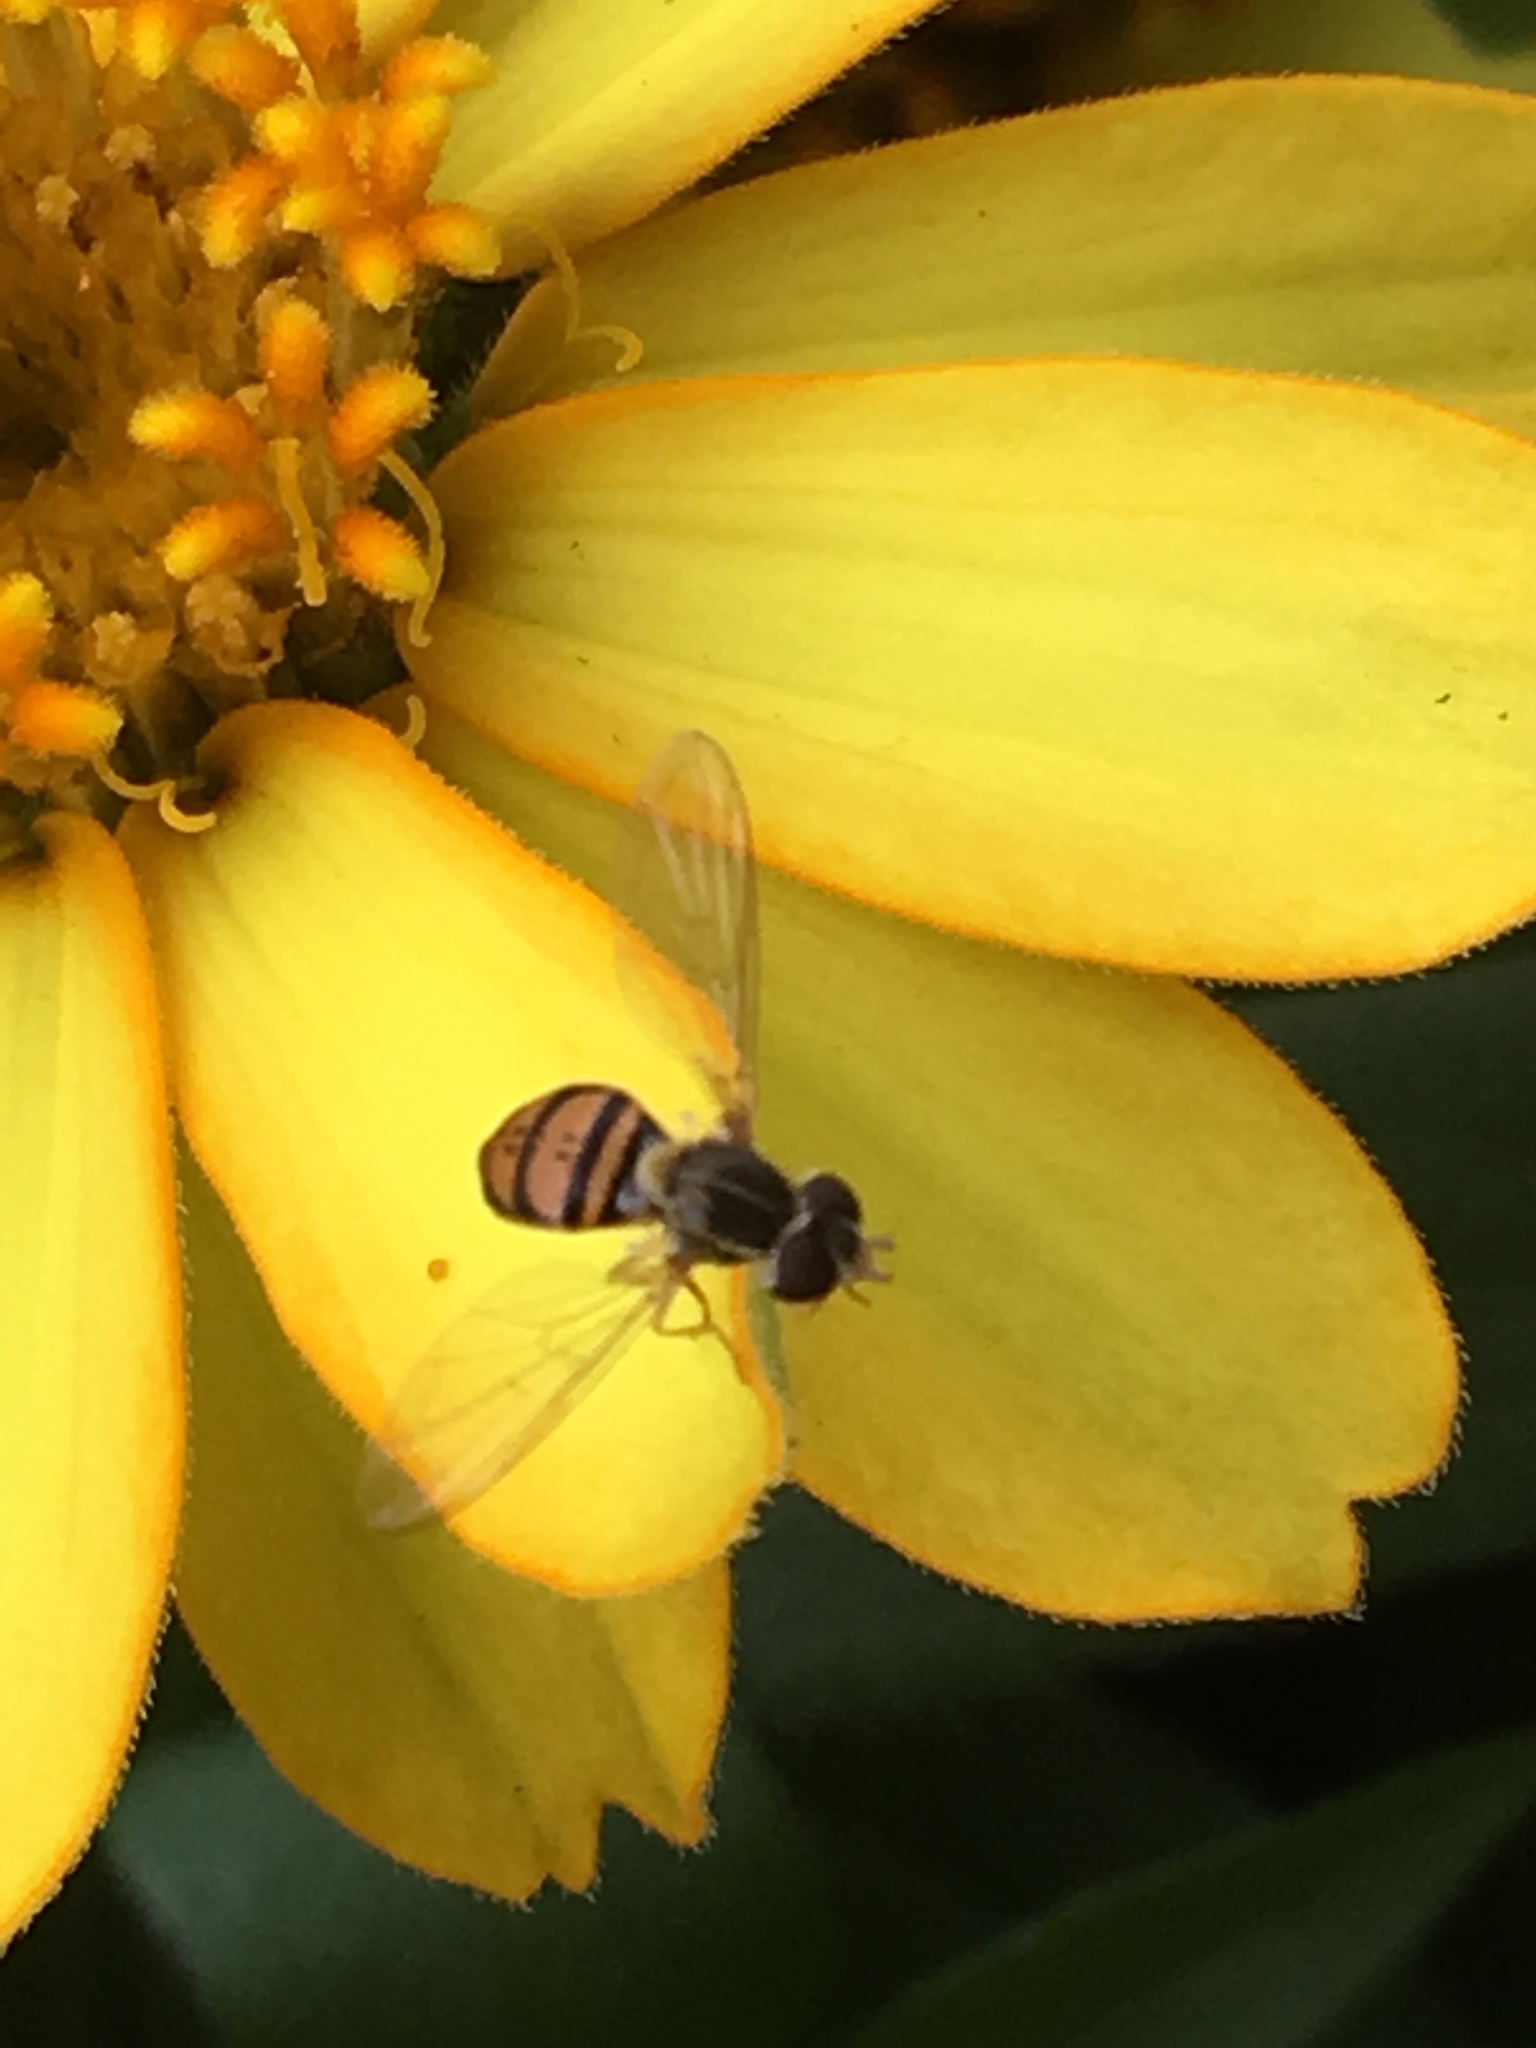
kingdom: Animalia
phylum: Arthropoda
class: Insecta
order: Diptera
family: Syrphidae
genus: Toxomerus
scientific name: Toxomerus marginatus
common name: Syrphid fly
